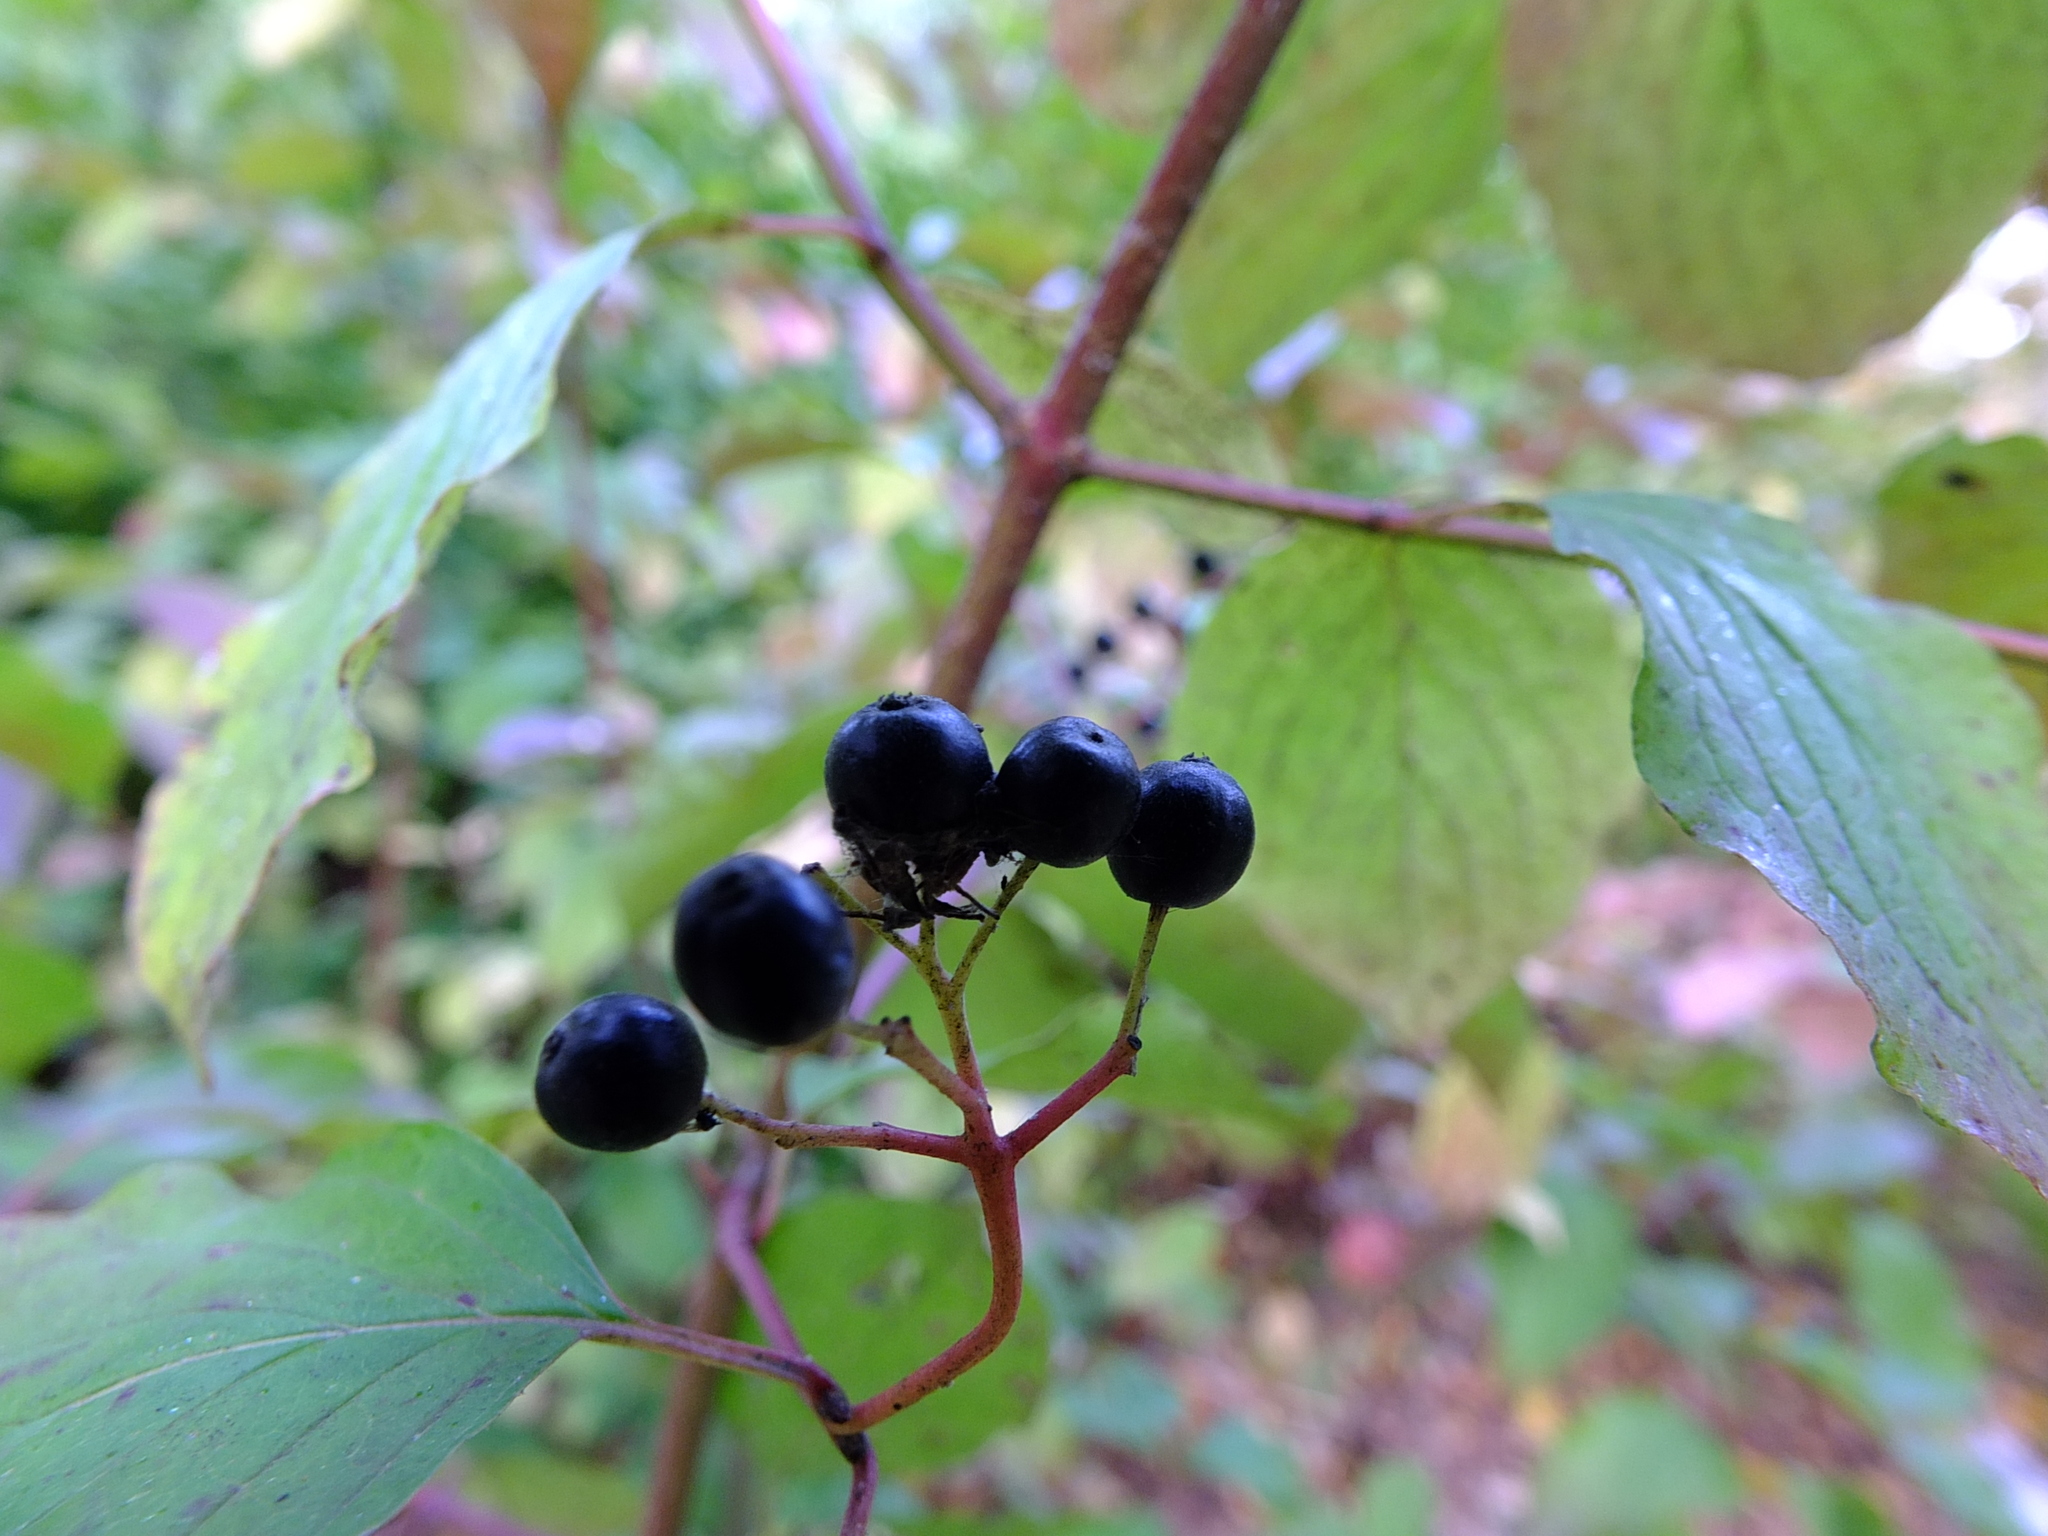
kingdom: Plantae
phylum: Tracheophyta
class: Magnoliopsida
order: Cornales
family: Cornaceae
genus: Cornus
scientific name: Cornus sanguinea
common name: Dogwood
